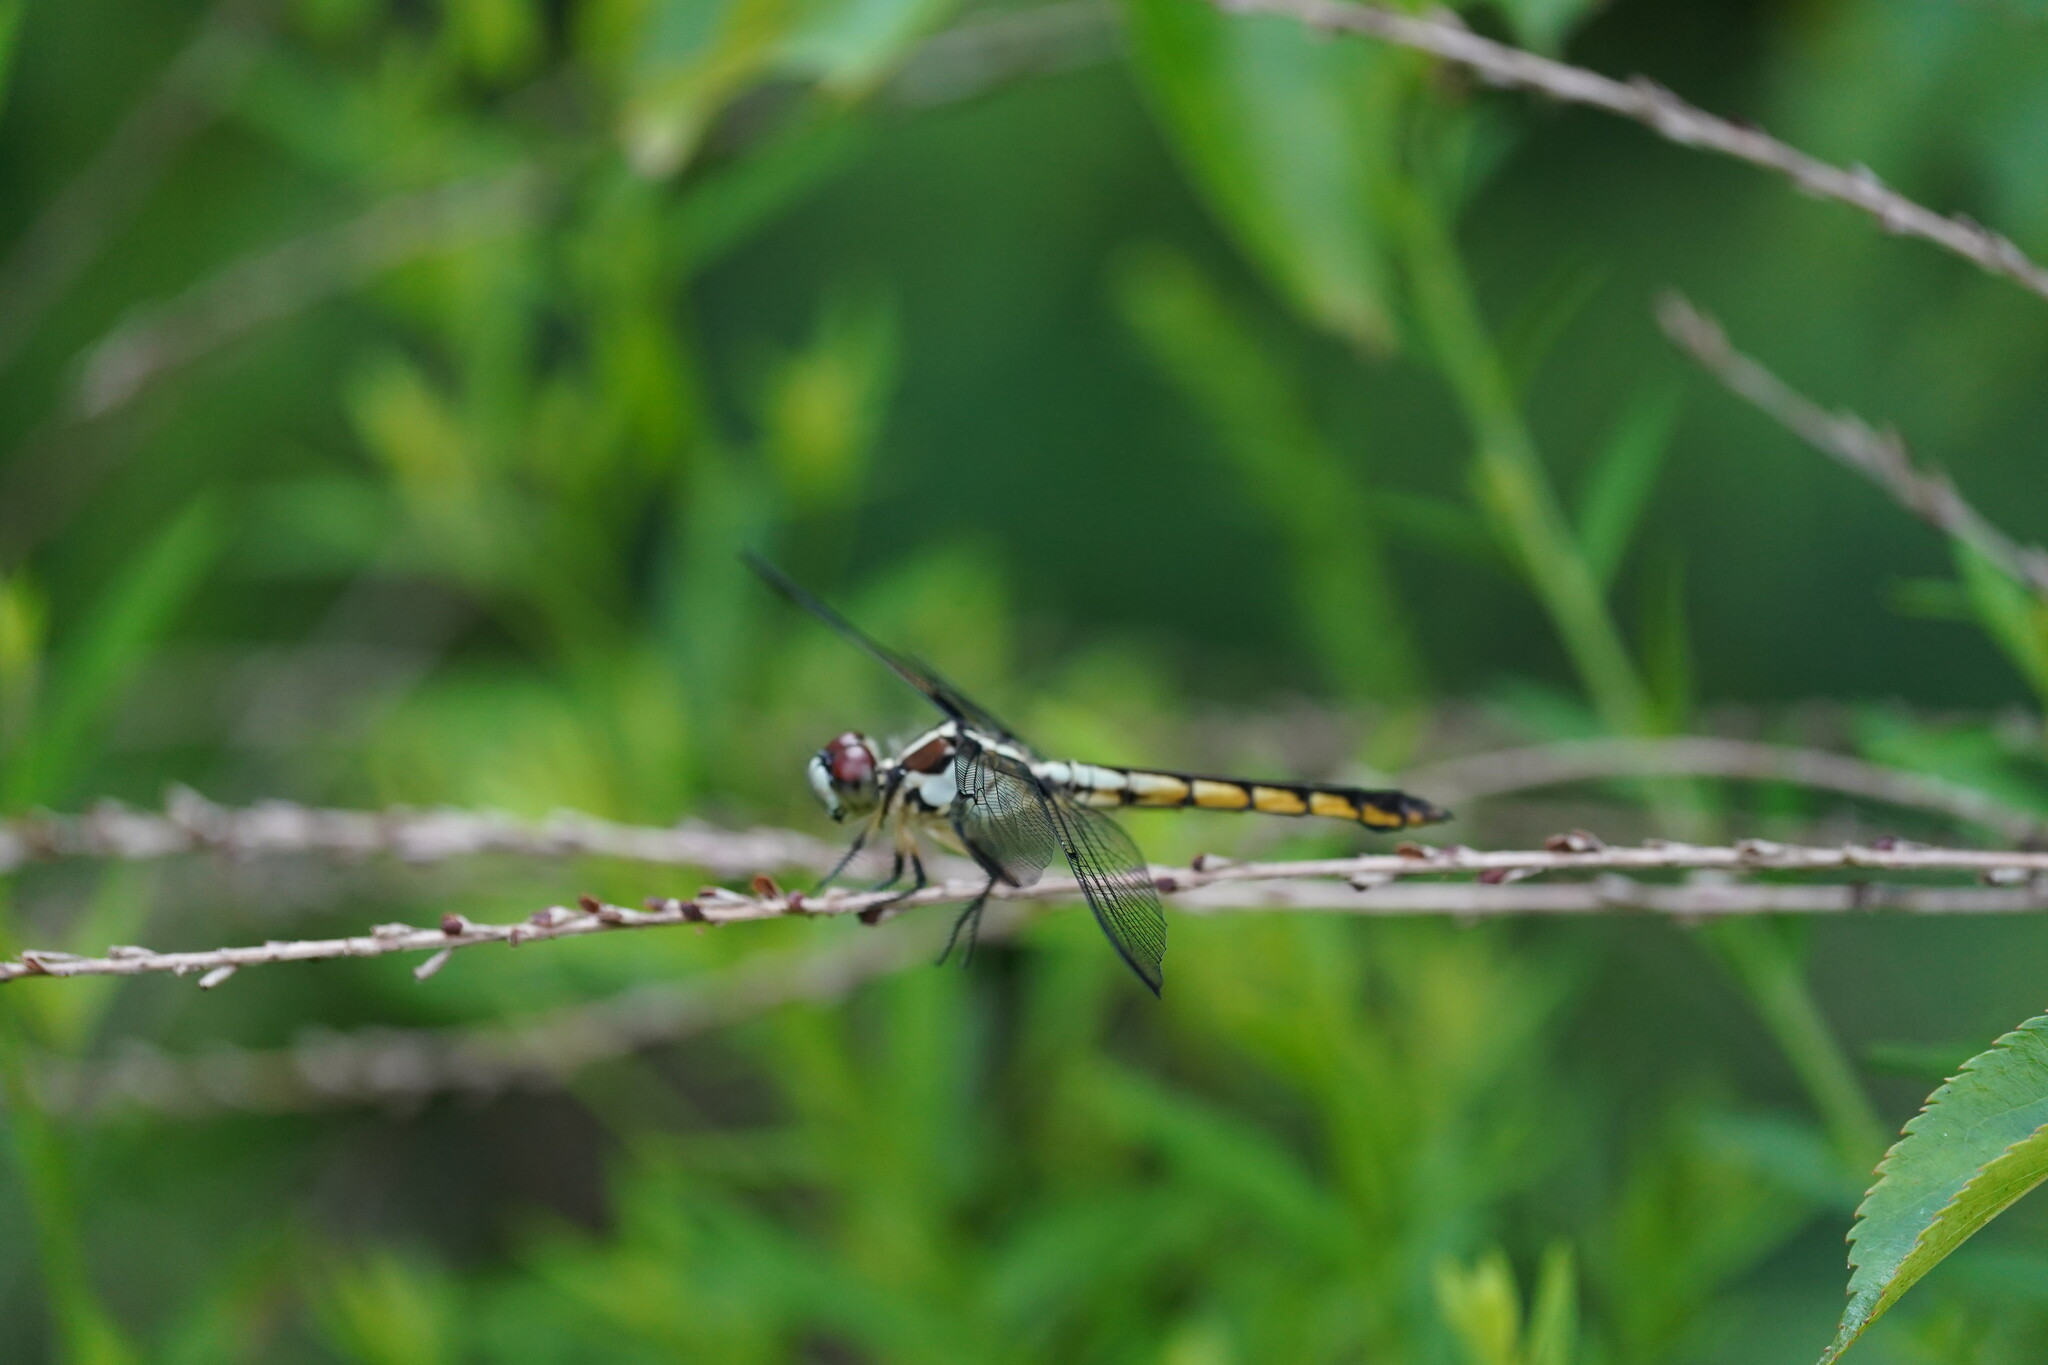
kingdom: Animalia
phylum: Arthropoda
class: Insecta
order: Odonata
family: Libellulidae
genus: Libellula
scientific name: Libellula vibrans
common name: Great blue skimmer
